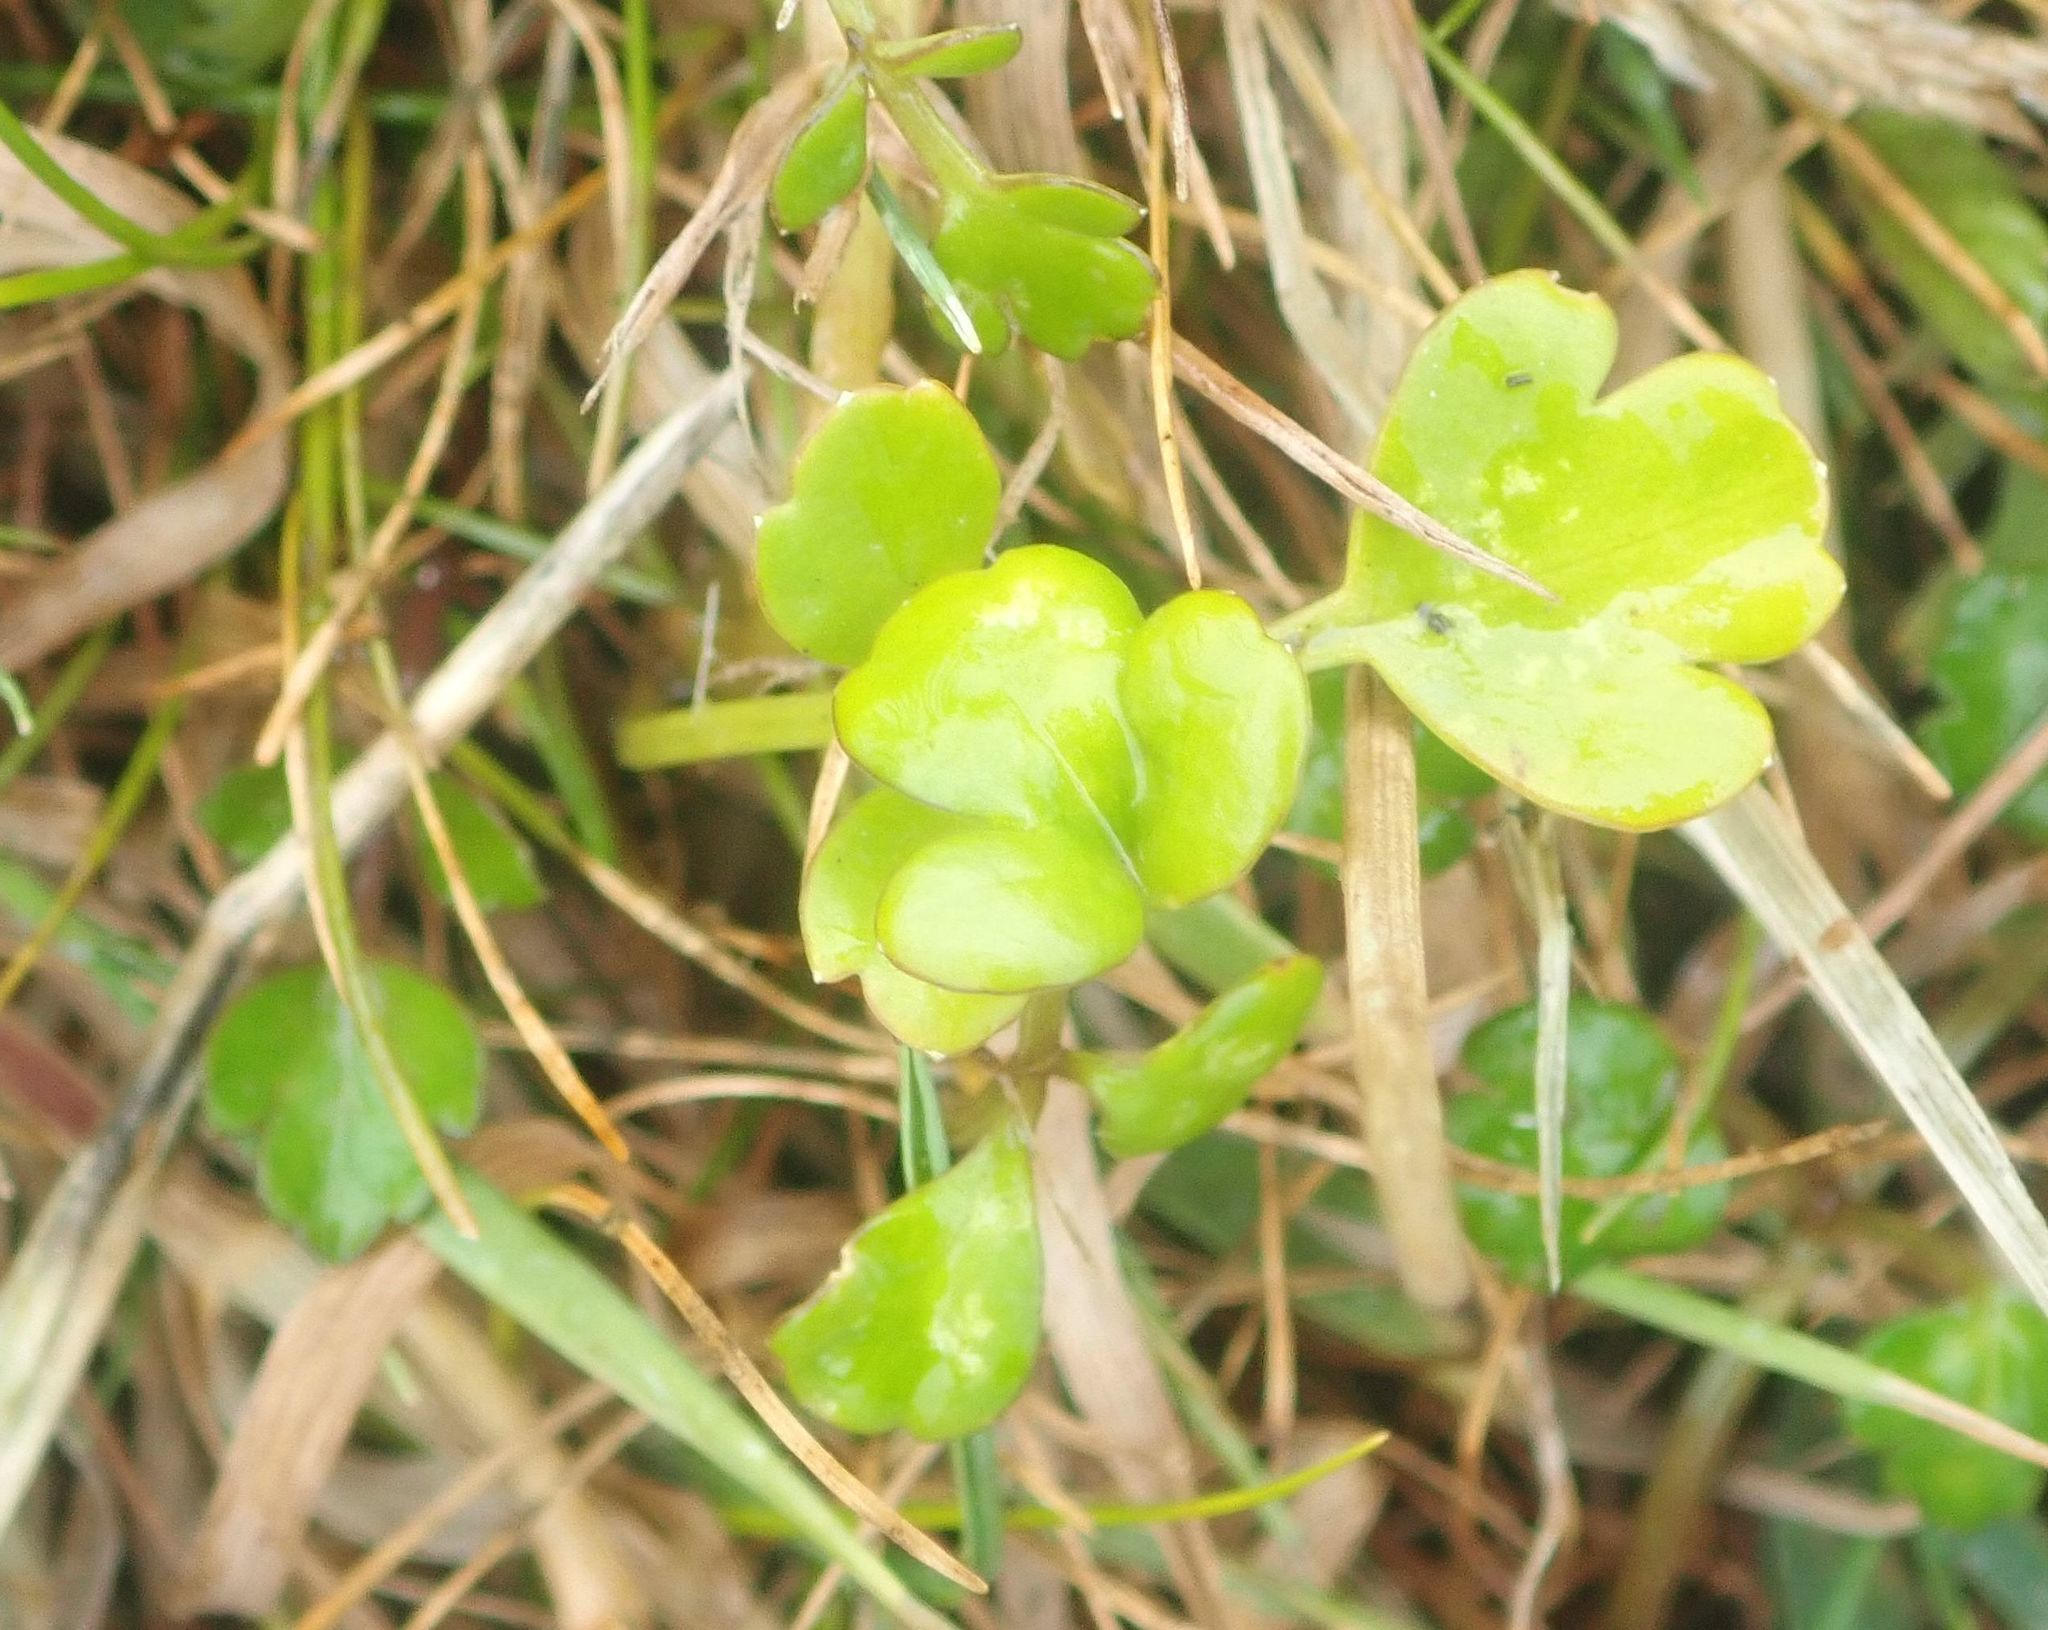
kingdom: Plantae
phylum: Tracheophyta
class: Magnoliopsida
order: Apiales
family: Apiaceae
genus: Apium
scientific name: Apium prostratum
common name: Prostrate marshwort
